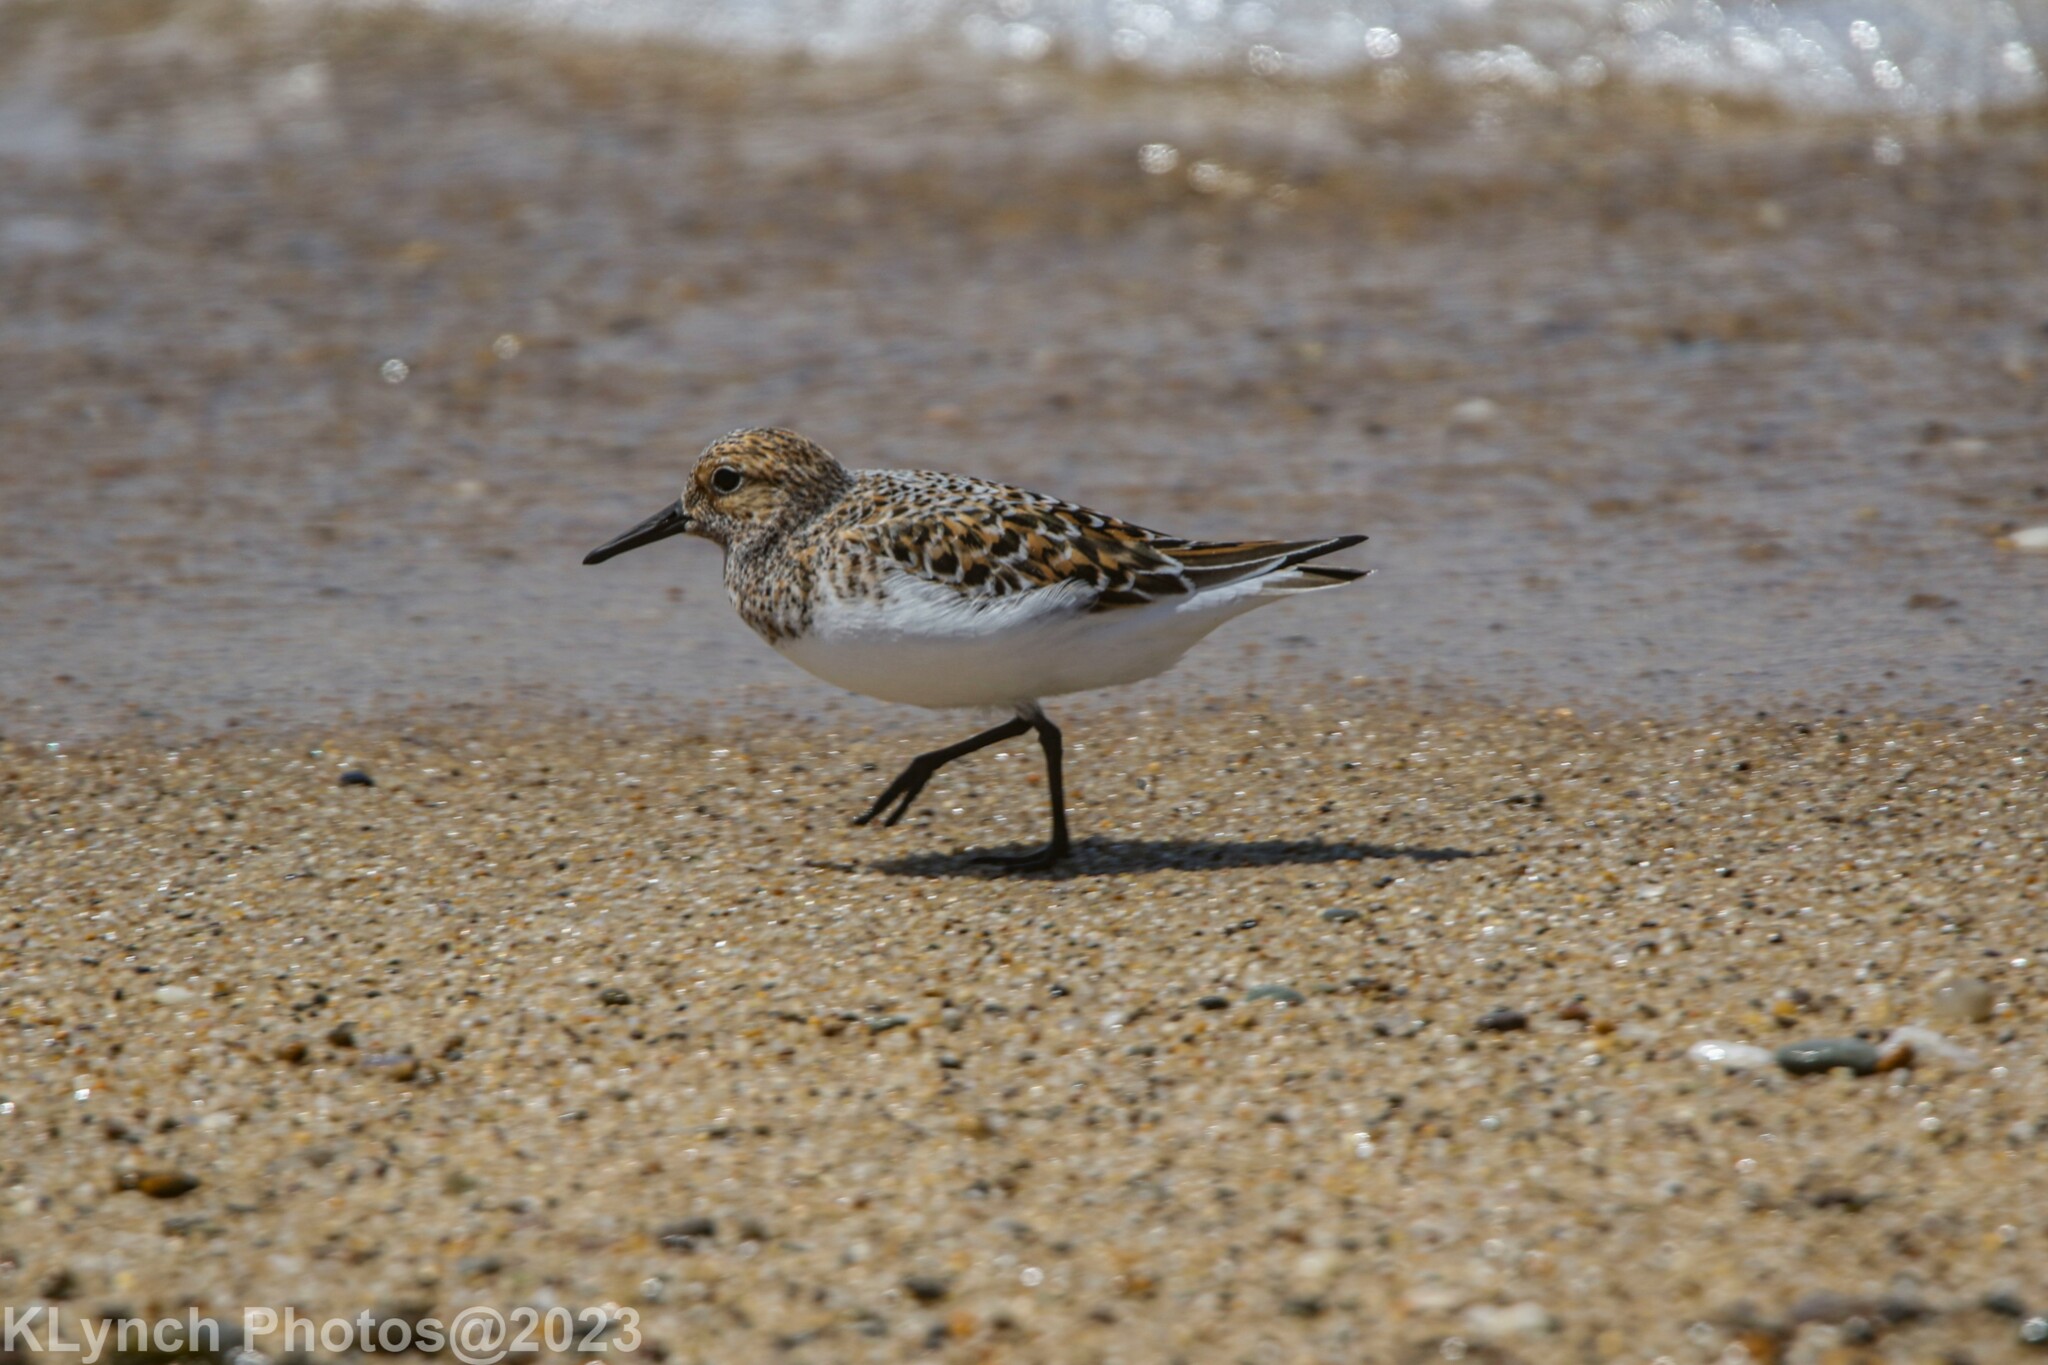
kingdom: Animalia
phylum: Chordata
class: Aves
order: Charadriiformes
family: Scolopacidae
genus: Calidris
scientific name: Calidris alba
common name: Sanderling
